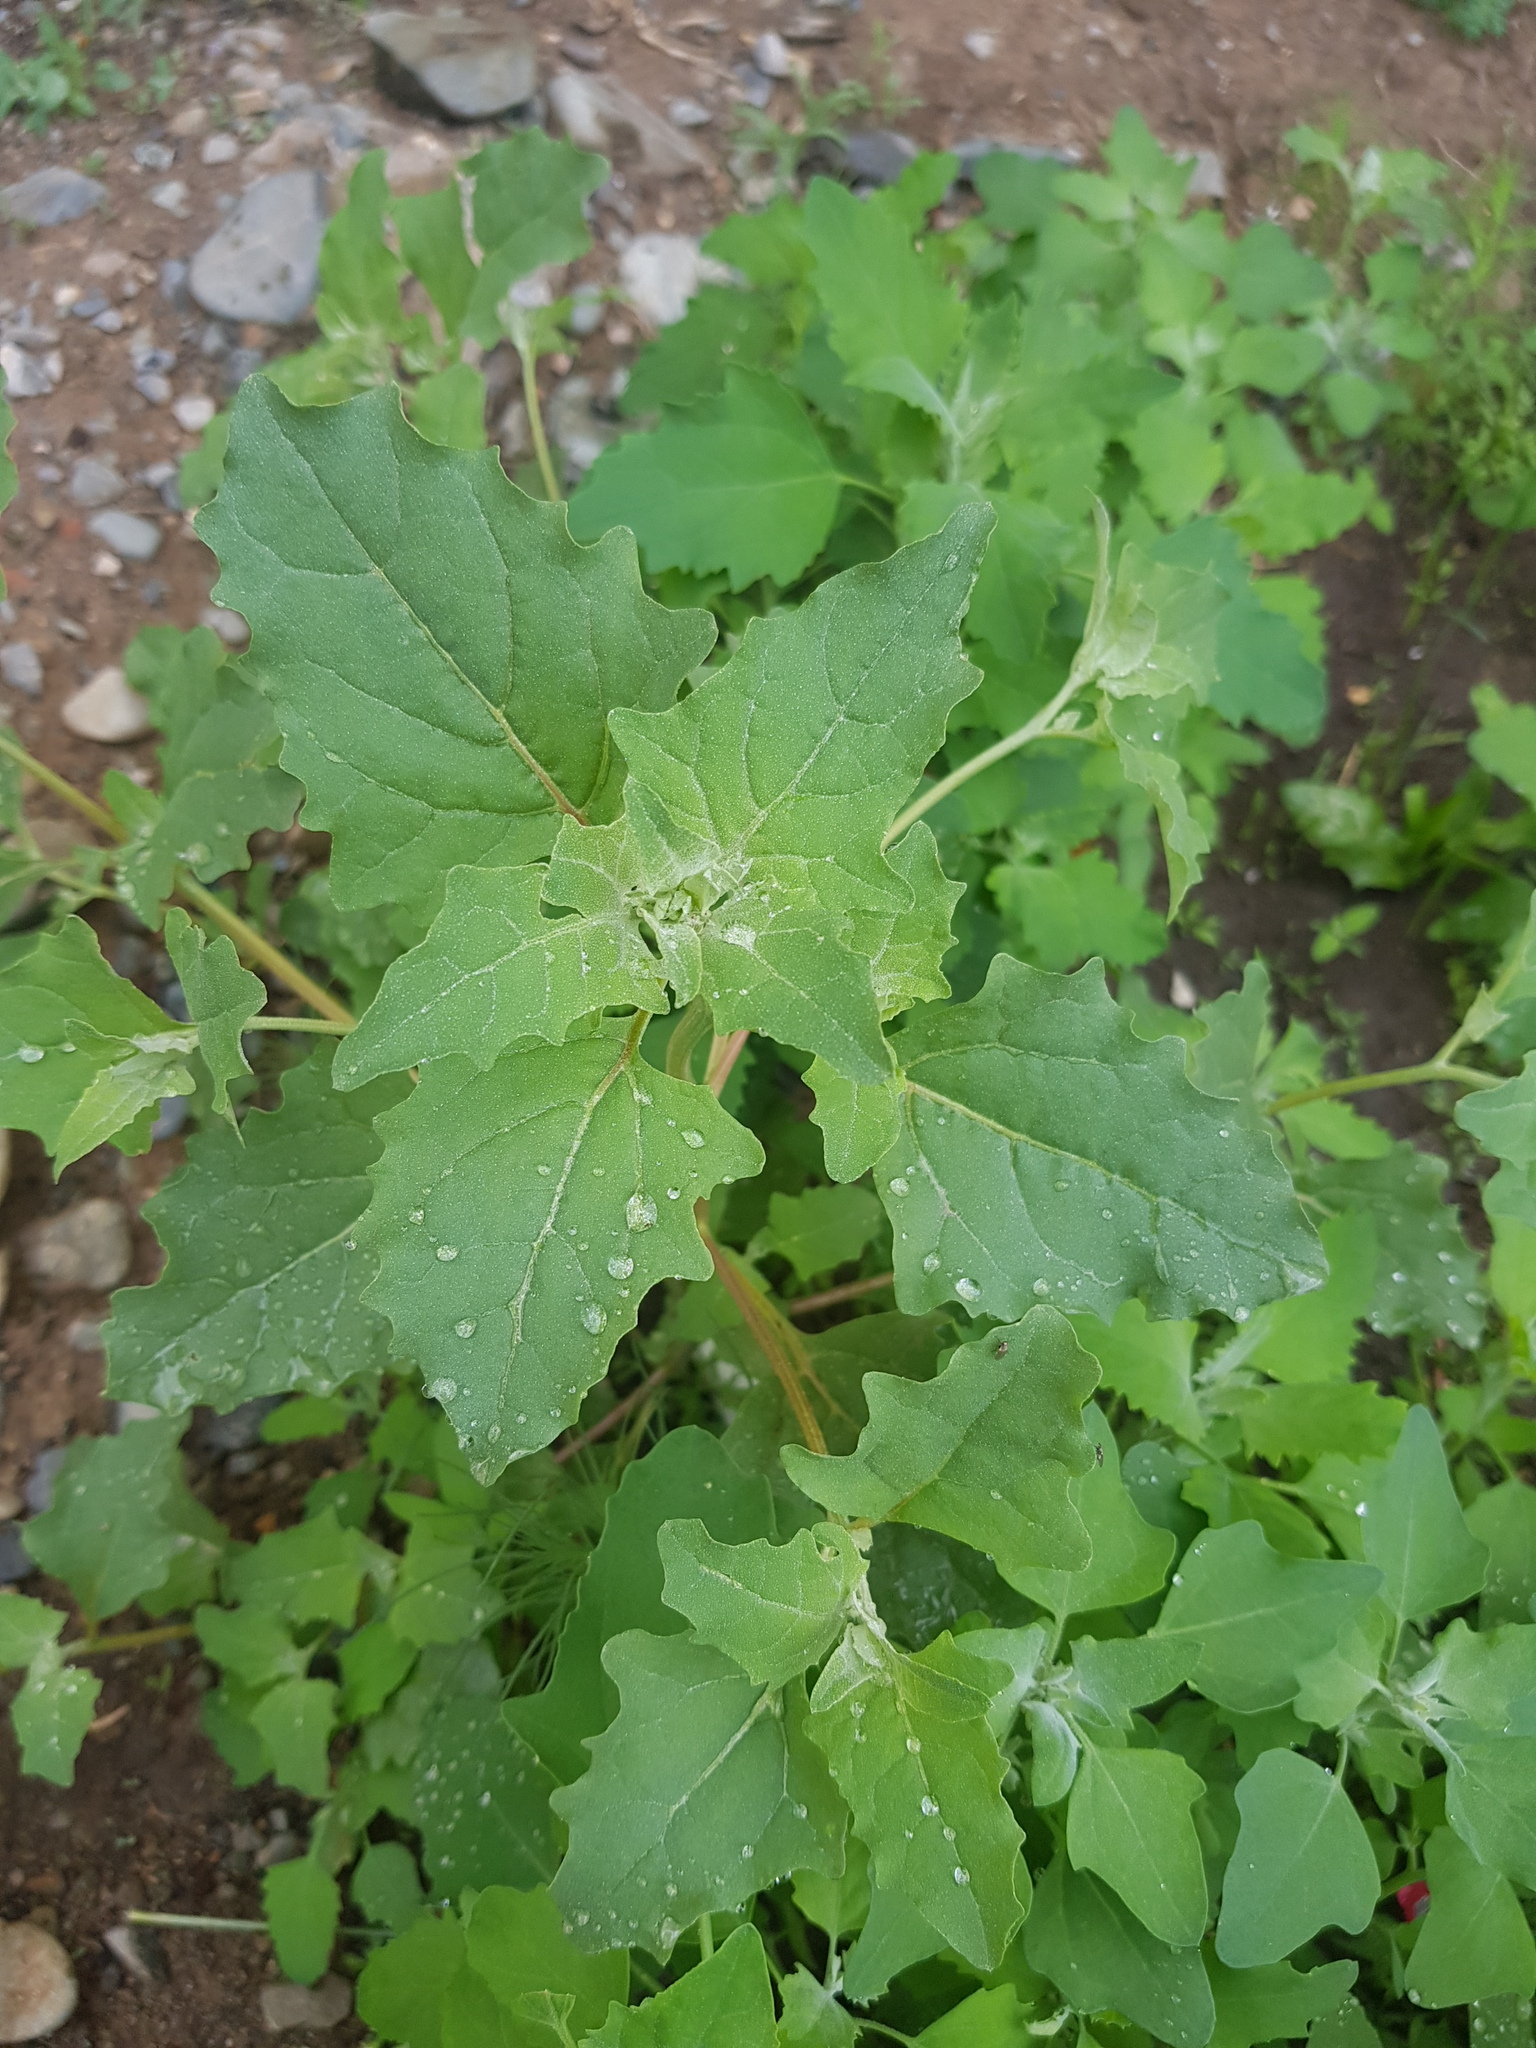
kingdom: Plantae
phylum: Tracheophyta
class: Magnoliopsida
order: Caryophyllales
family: Amaranthaceae
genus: Chenopodium
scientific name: Chenopodium album
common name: Fat-hen
